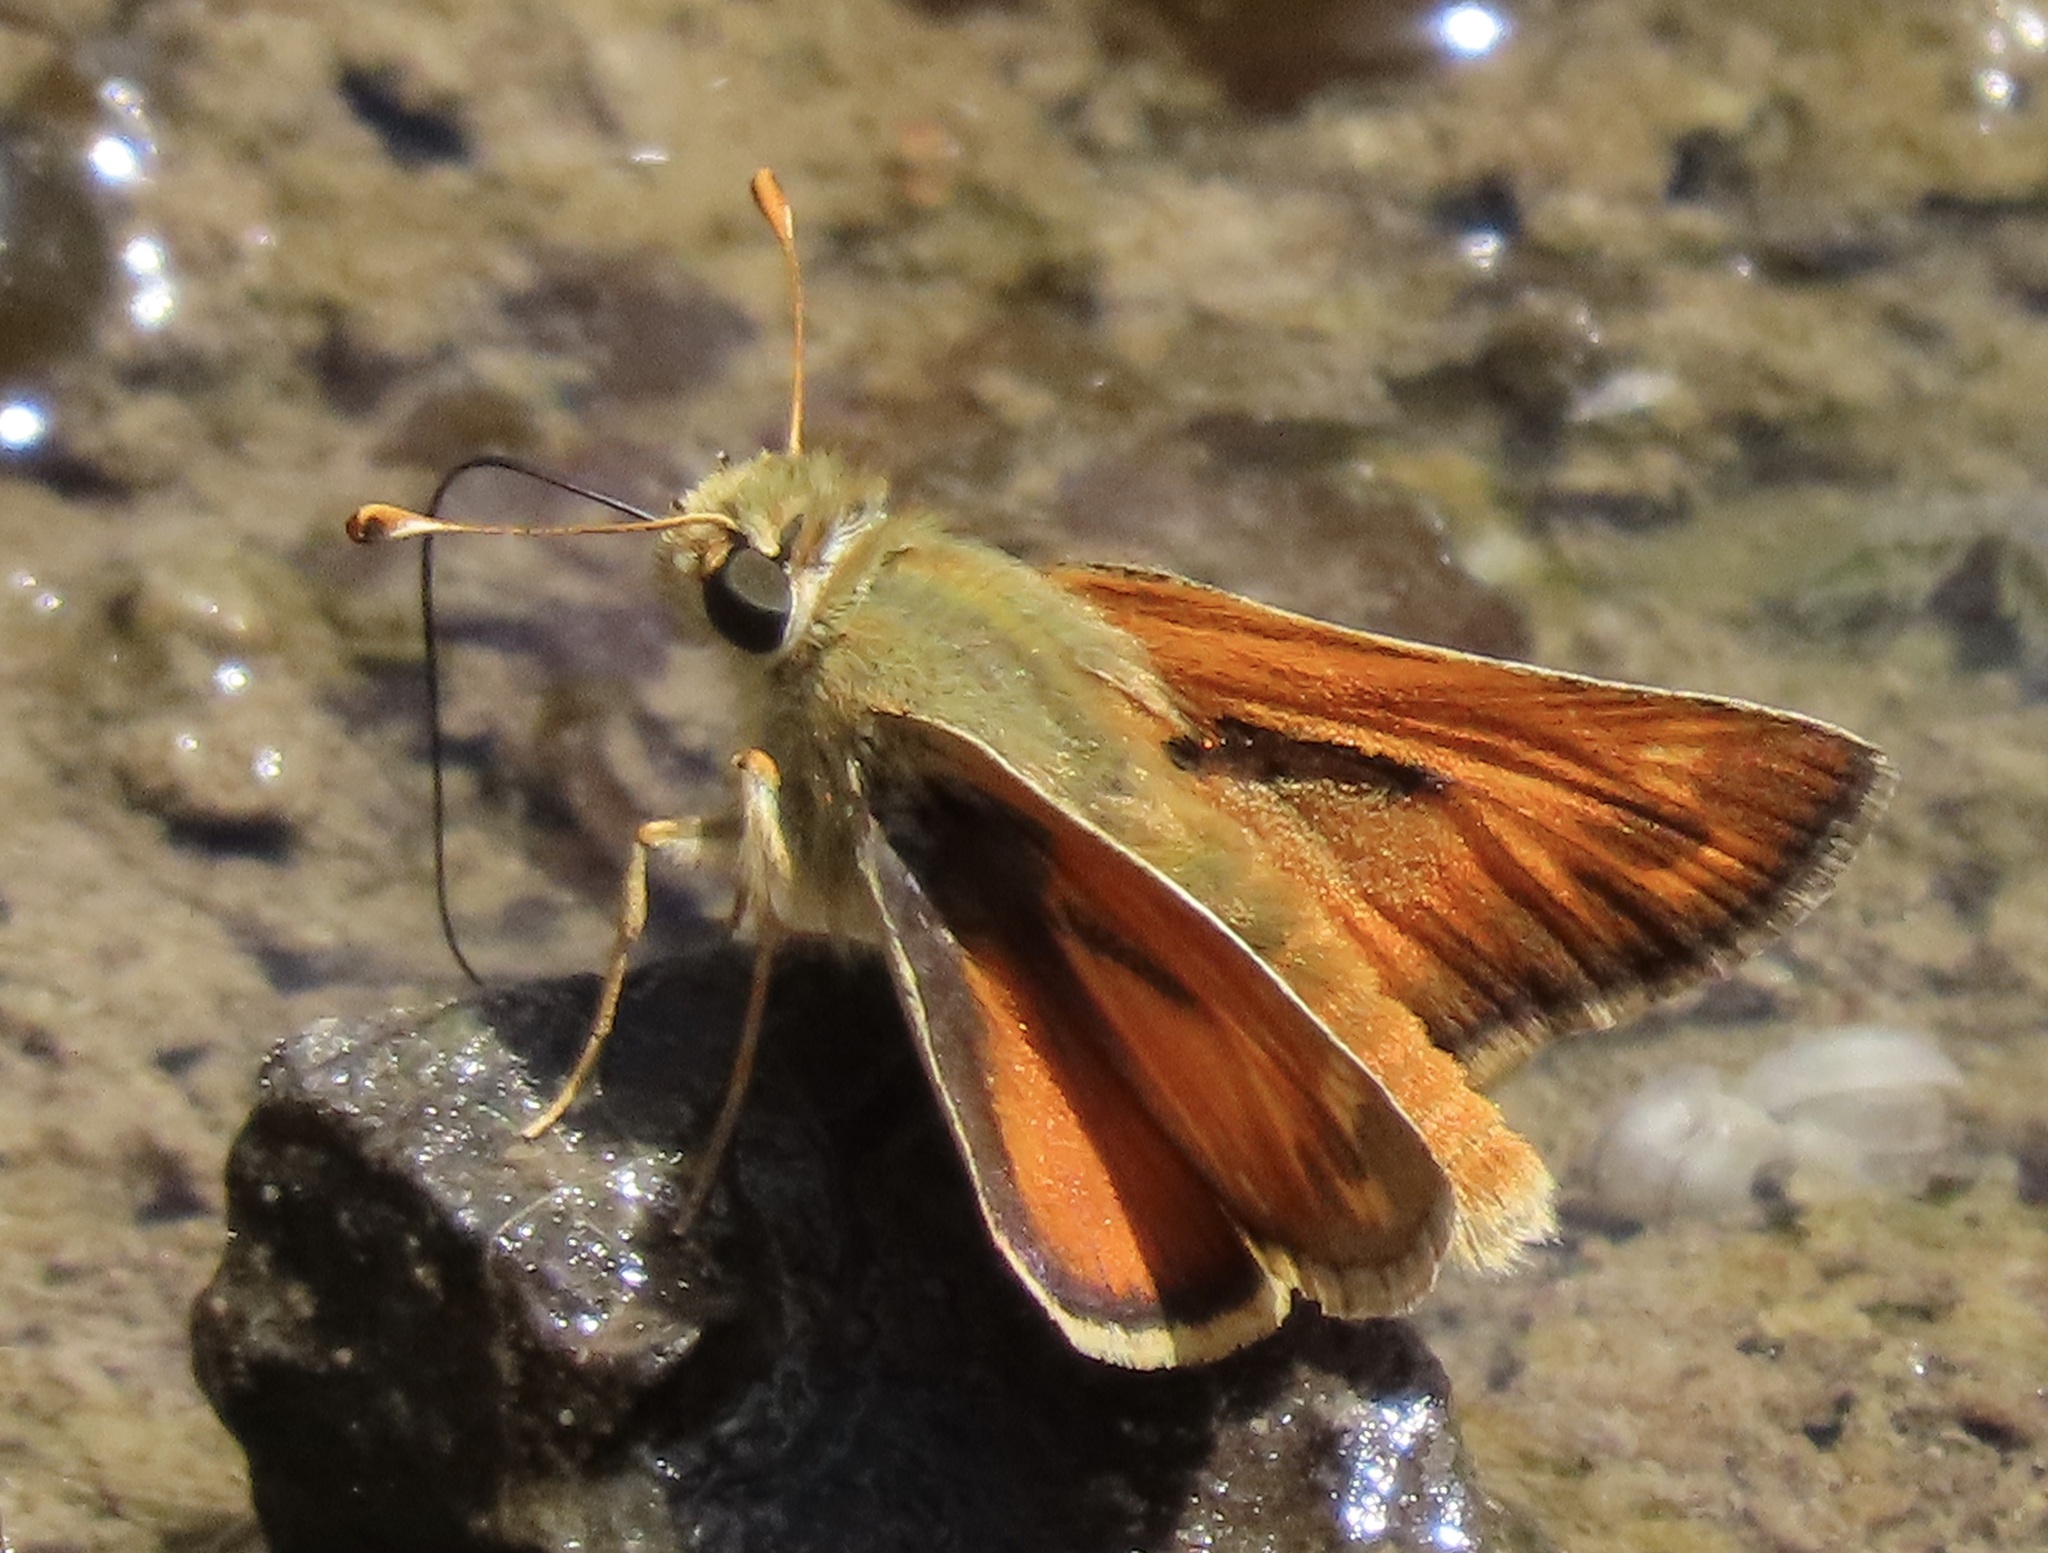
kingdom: Animalia
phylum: Arthropoda
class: Insecta
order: Lepidoptera
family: Hesperiidae
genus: Hesperia
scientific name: Hesperia lindseyi
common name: Lindsey's skipper
